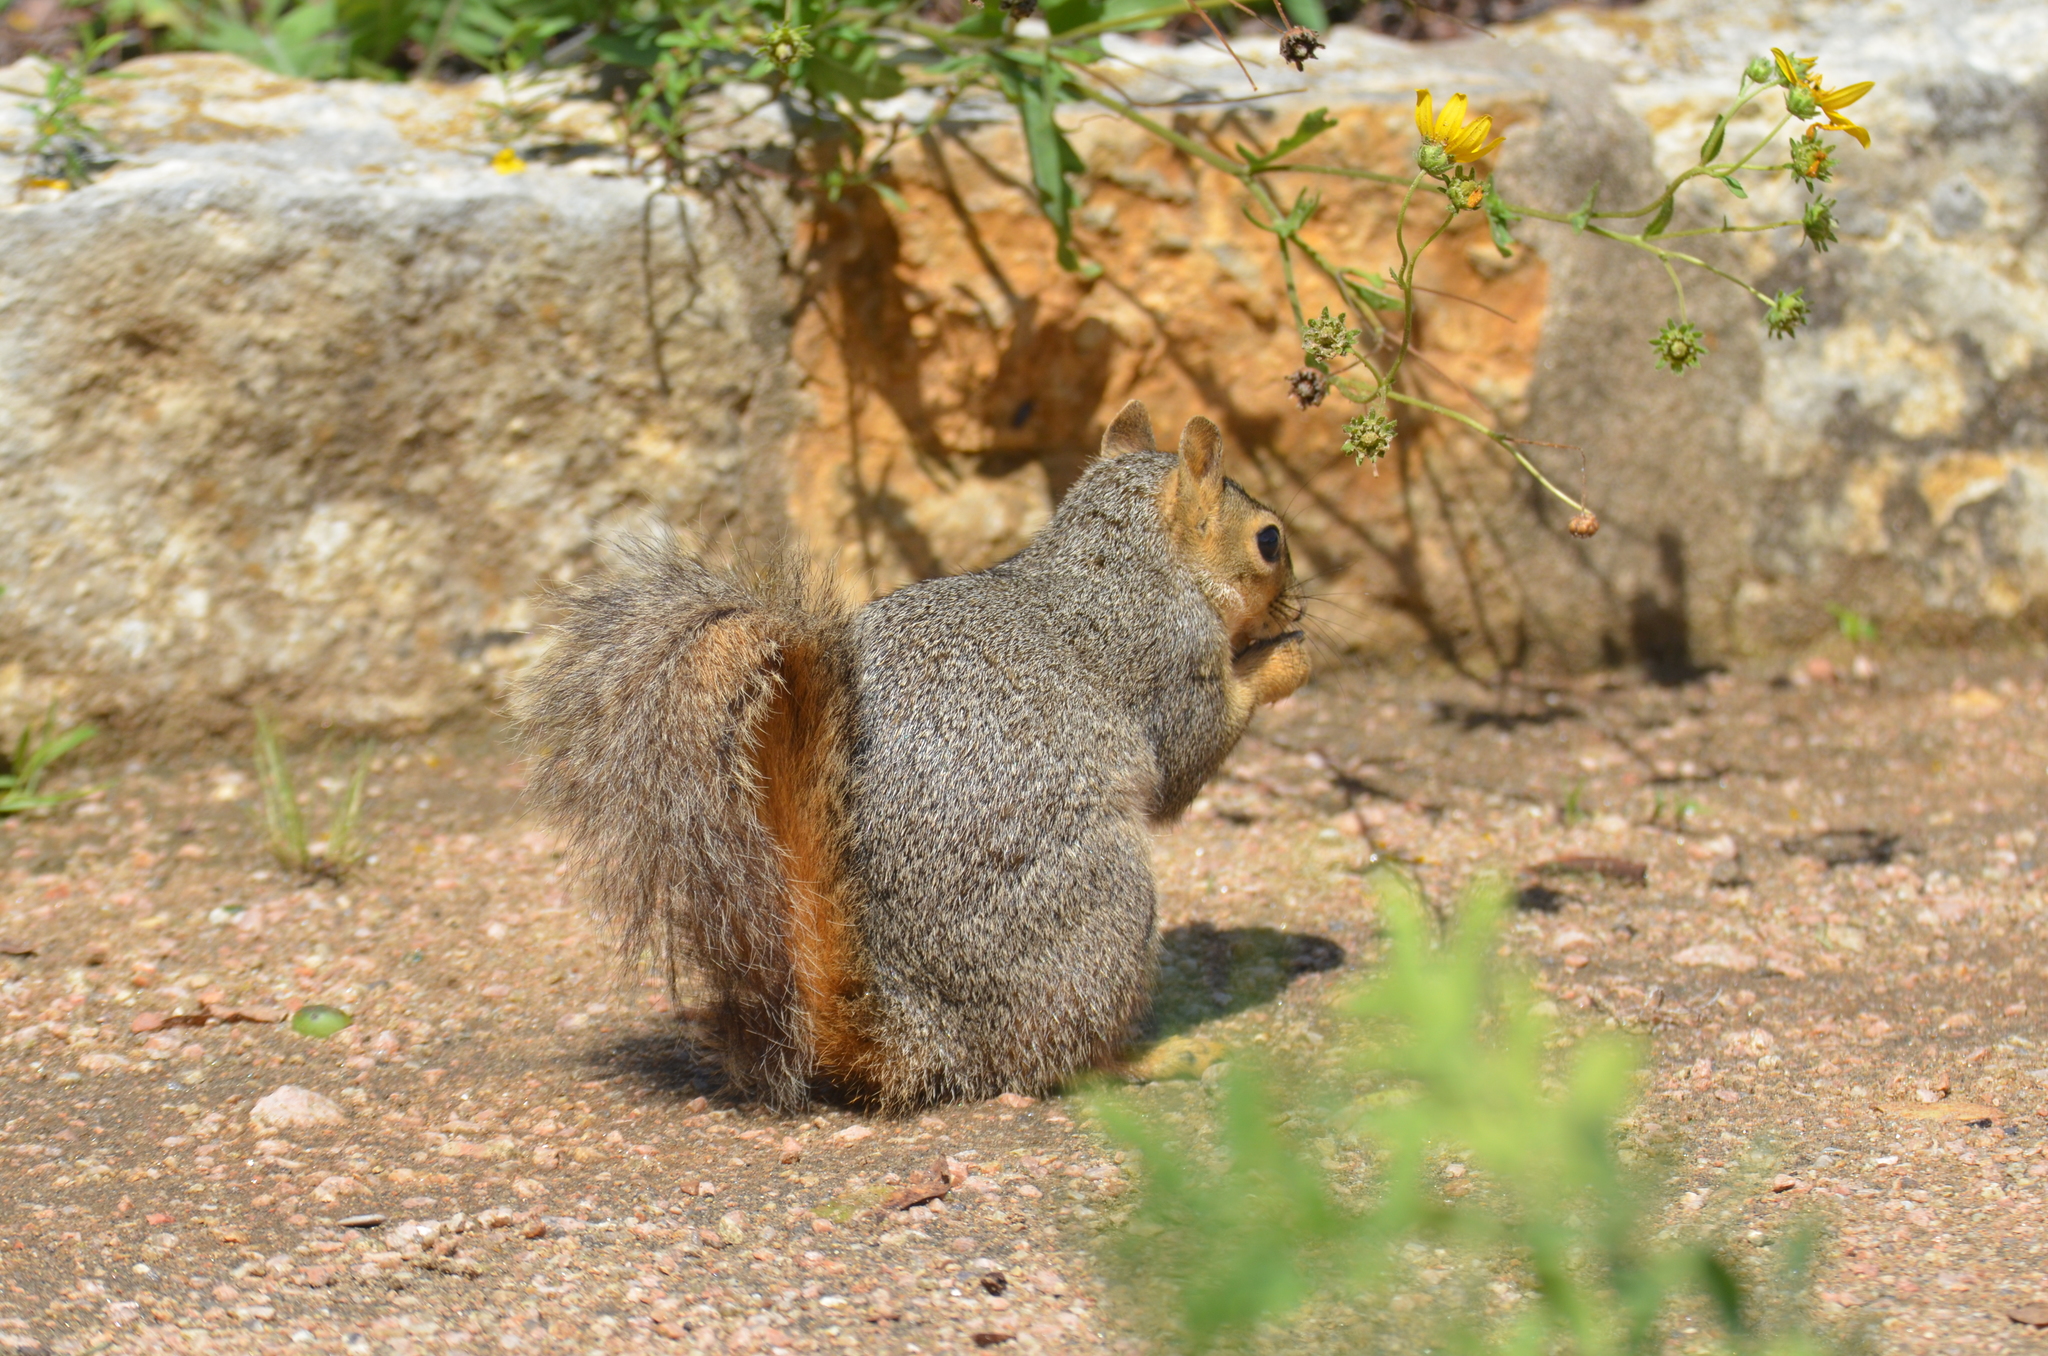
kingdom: Animalia
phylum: Chordata
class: Mammalia
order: Rodentia
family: Sciuridae
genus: Sciurus
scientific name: Sciurus niger
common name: Fox squirrel
